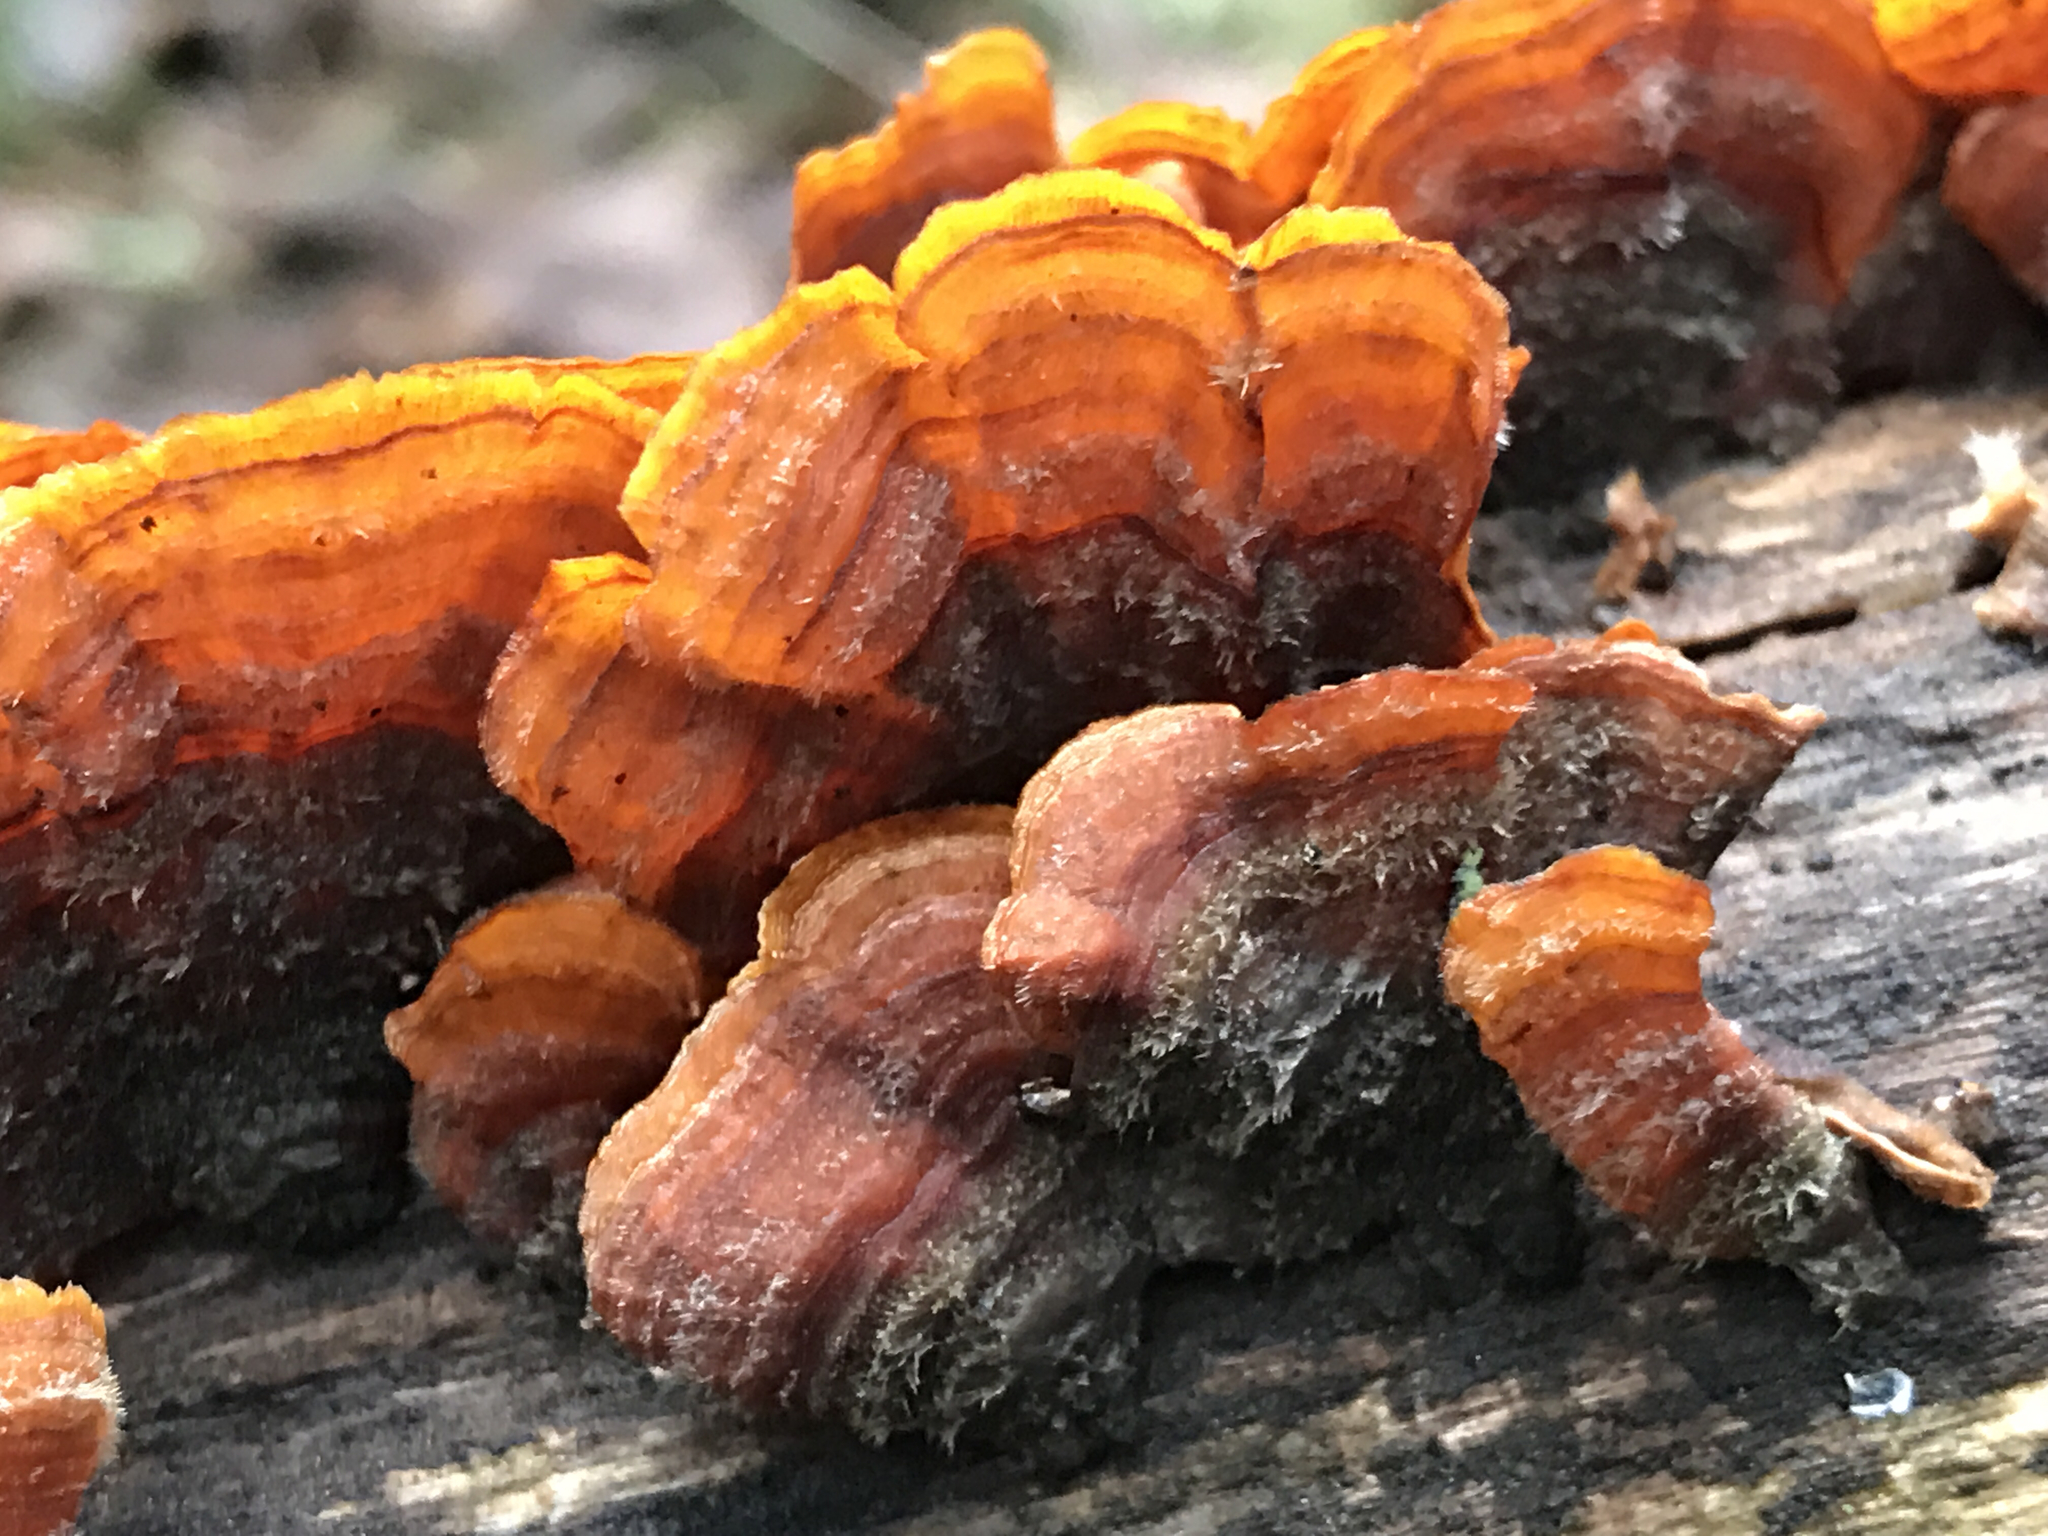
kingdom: Fungi
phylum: Basidiomycota
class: Agaricomycetes
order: Russulales
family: Stereaceae
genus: Stereum
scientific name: Stereum hirsutum
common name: Hairy curtain crust
